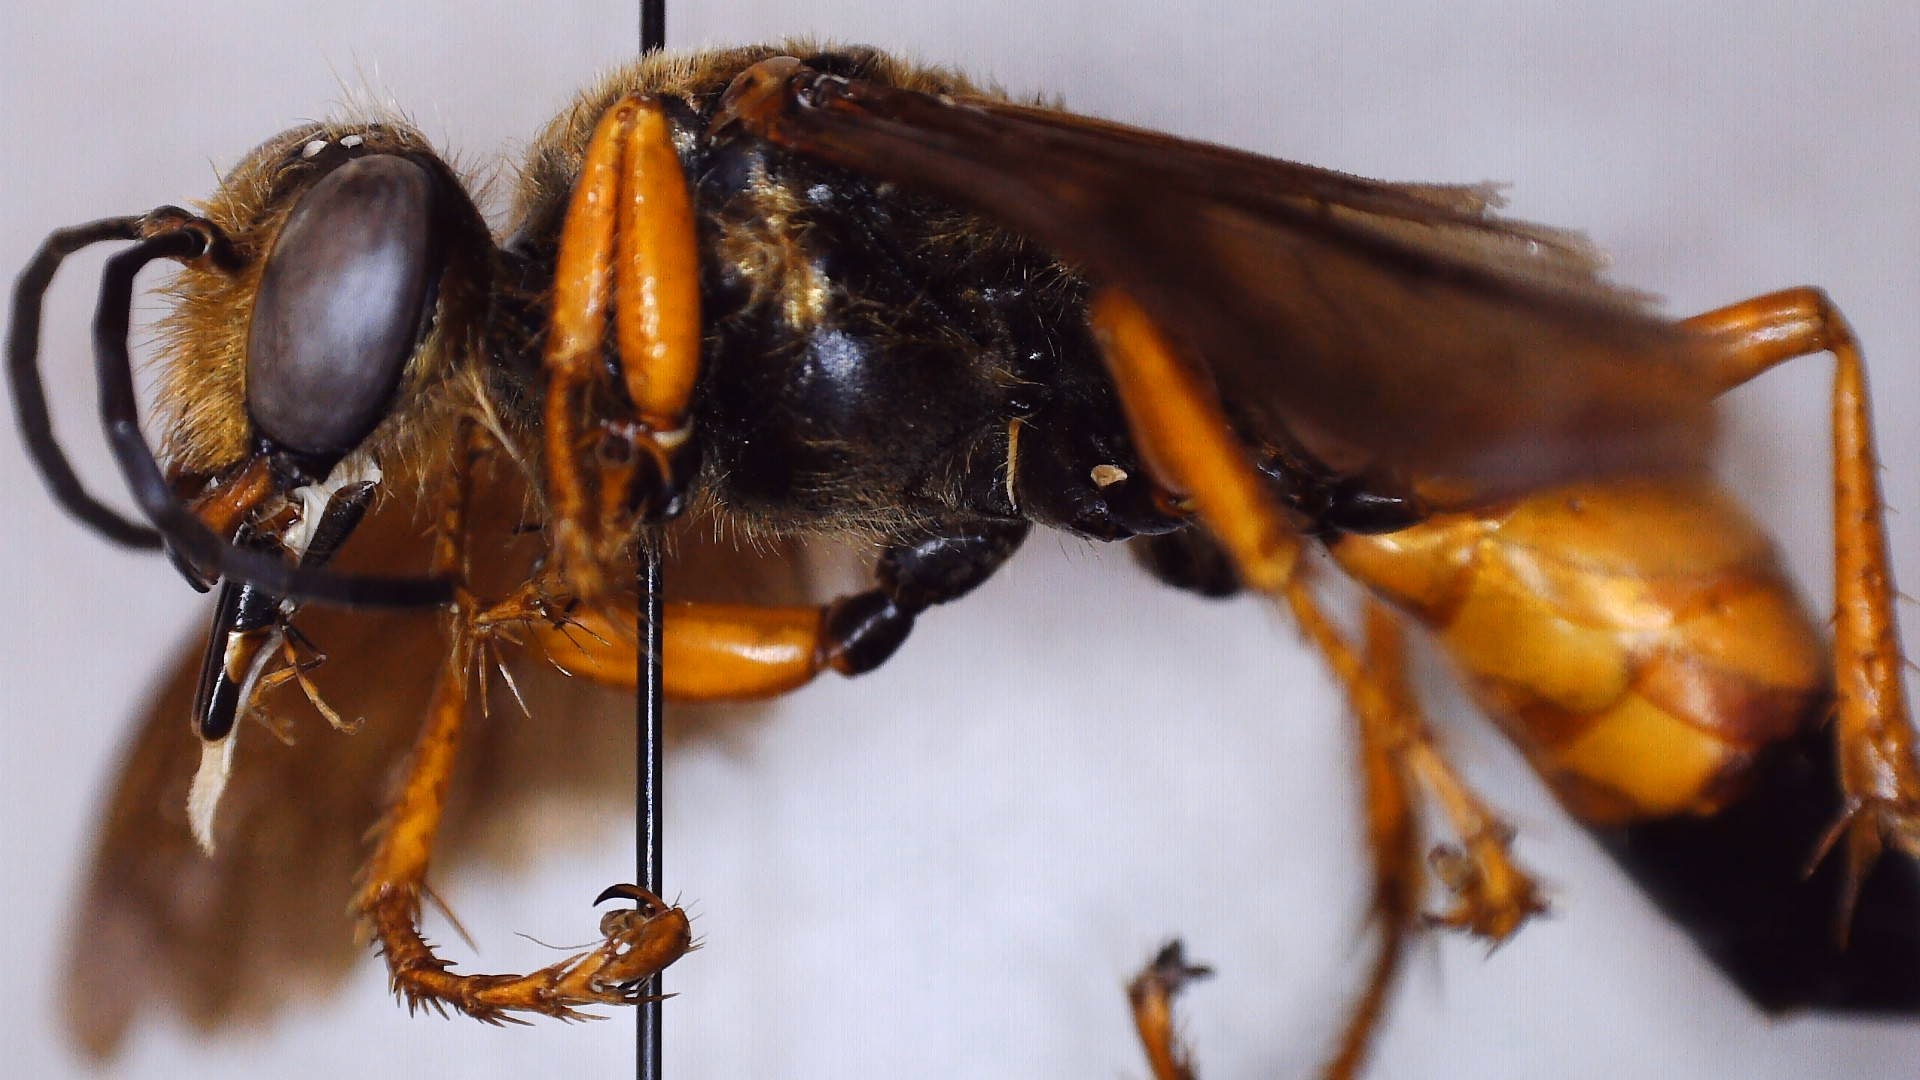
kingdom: Animalia
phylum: Arthropoda
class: Insecta
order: Hymenoptera
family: Sphecidae
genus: Sphex
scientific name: Sphex ichneumoneus
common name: Great golden digger wasp
